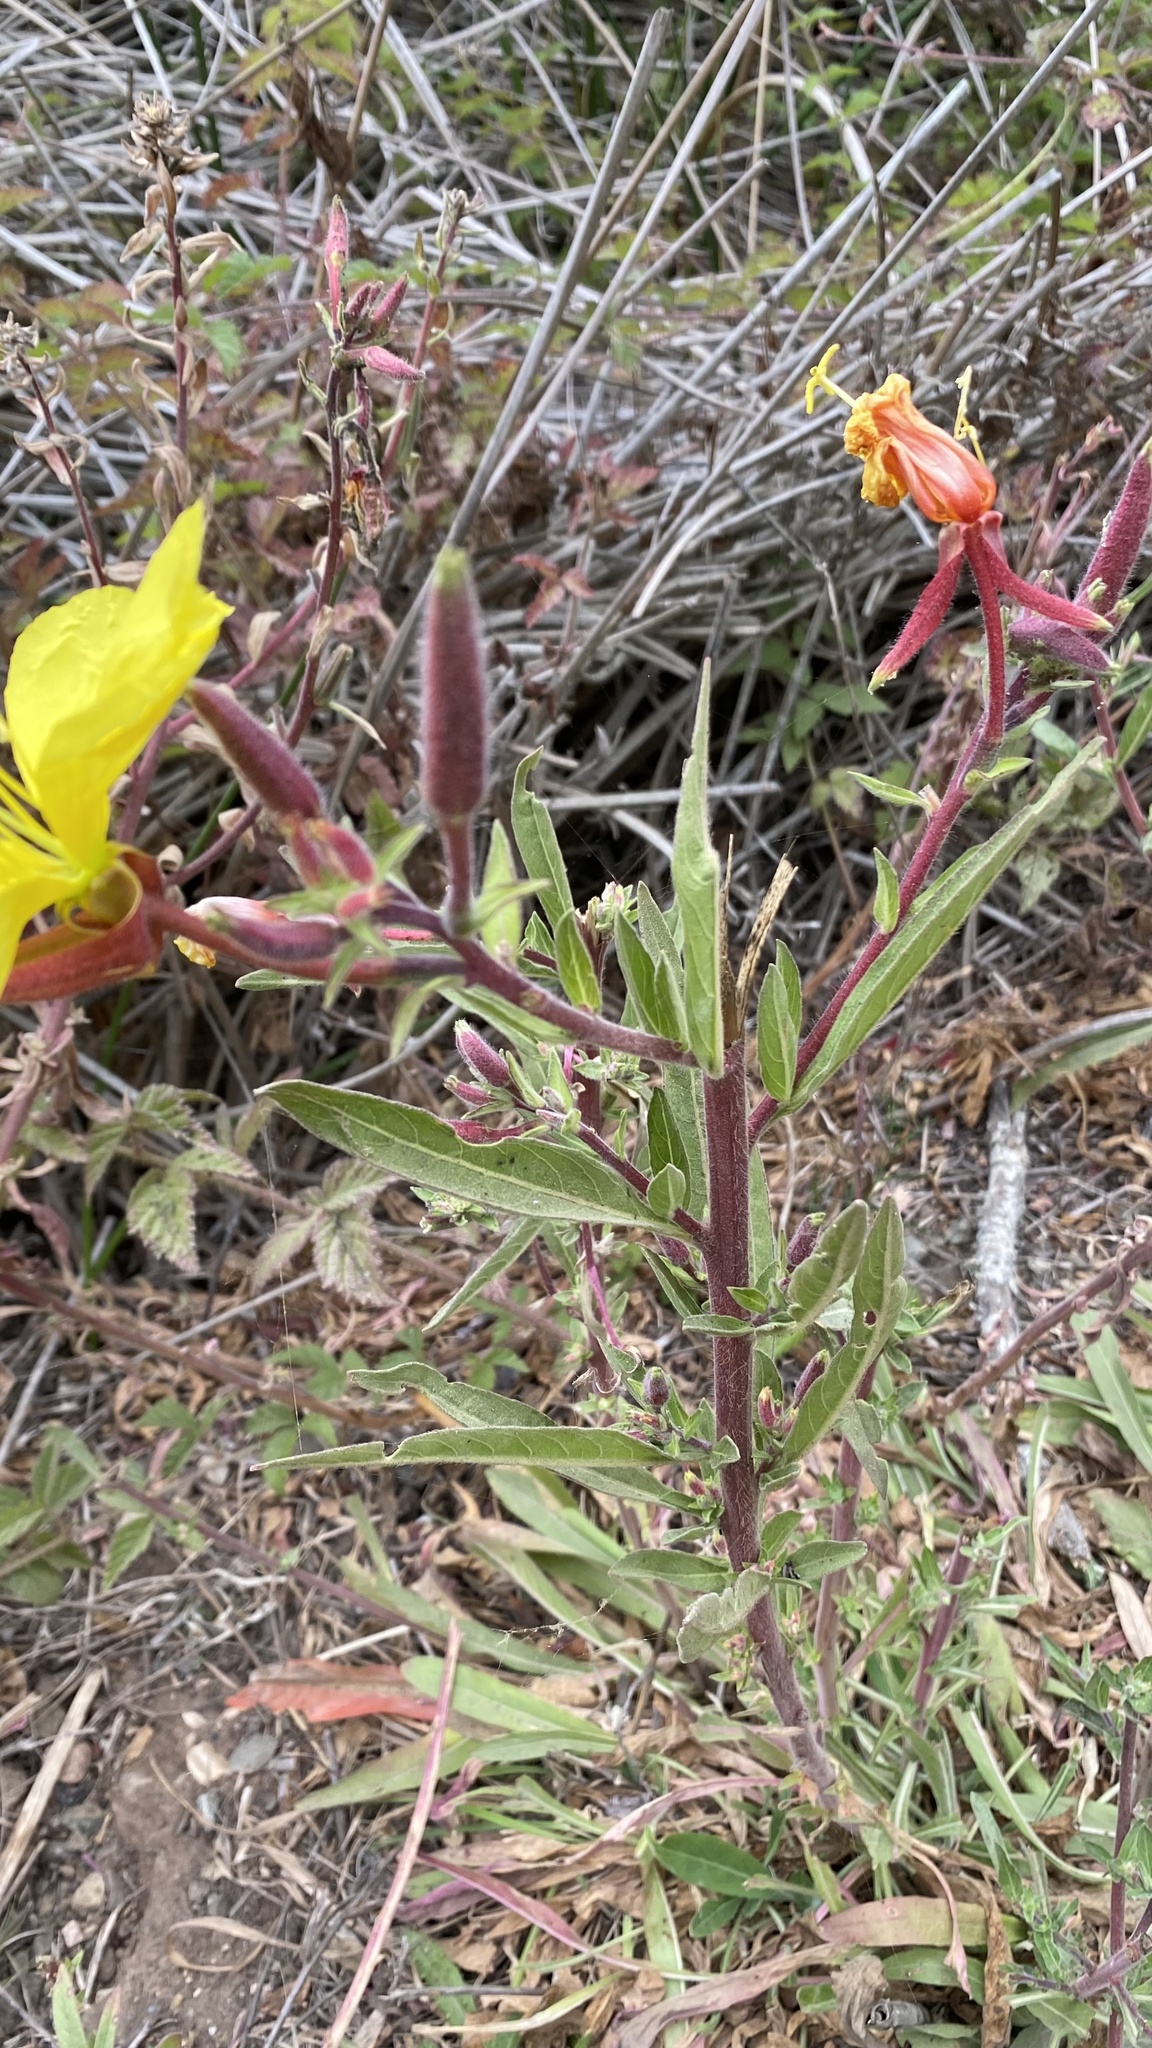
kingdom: Plantae
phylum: Tracheophyta
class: Magnoliopsida
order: Myrtales
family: Onagraceae
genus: Oenothera
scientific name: Oenothera elata
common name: Hooker's evening-primrose
